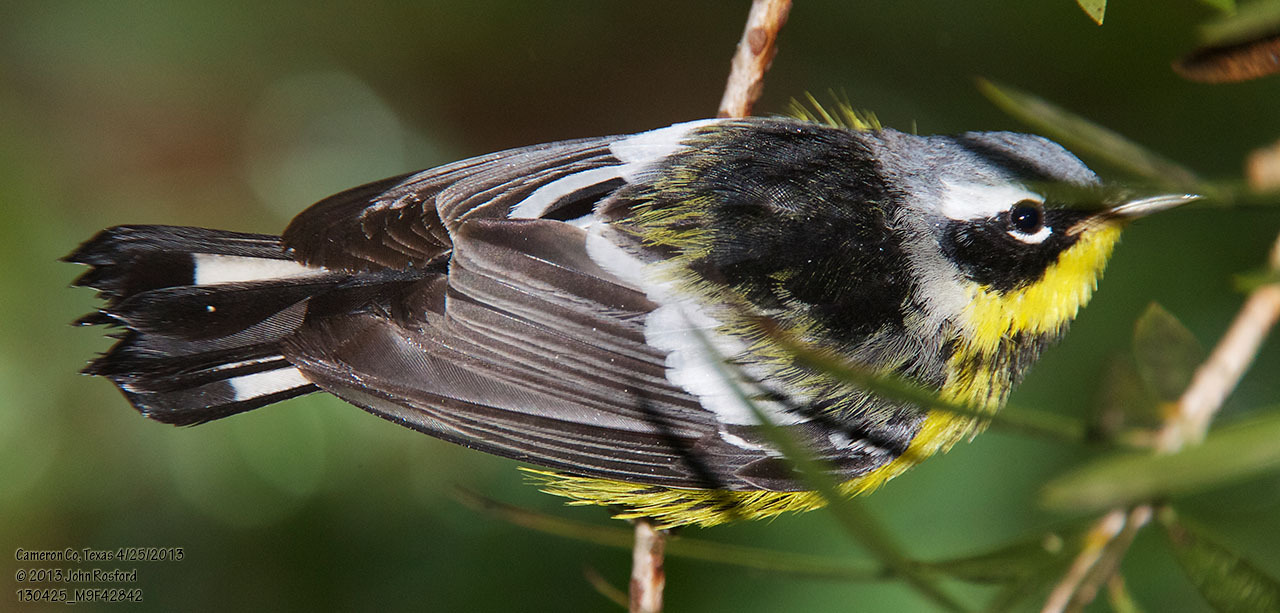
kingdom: Animalia
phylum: Chordata
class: Aves
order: Passeriformes
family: Parulidae
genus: Setophaga
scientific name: Setophaga magnolia
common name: Magnolia warbler
